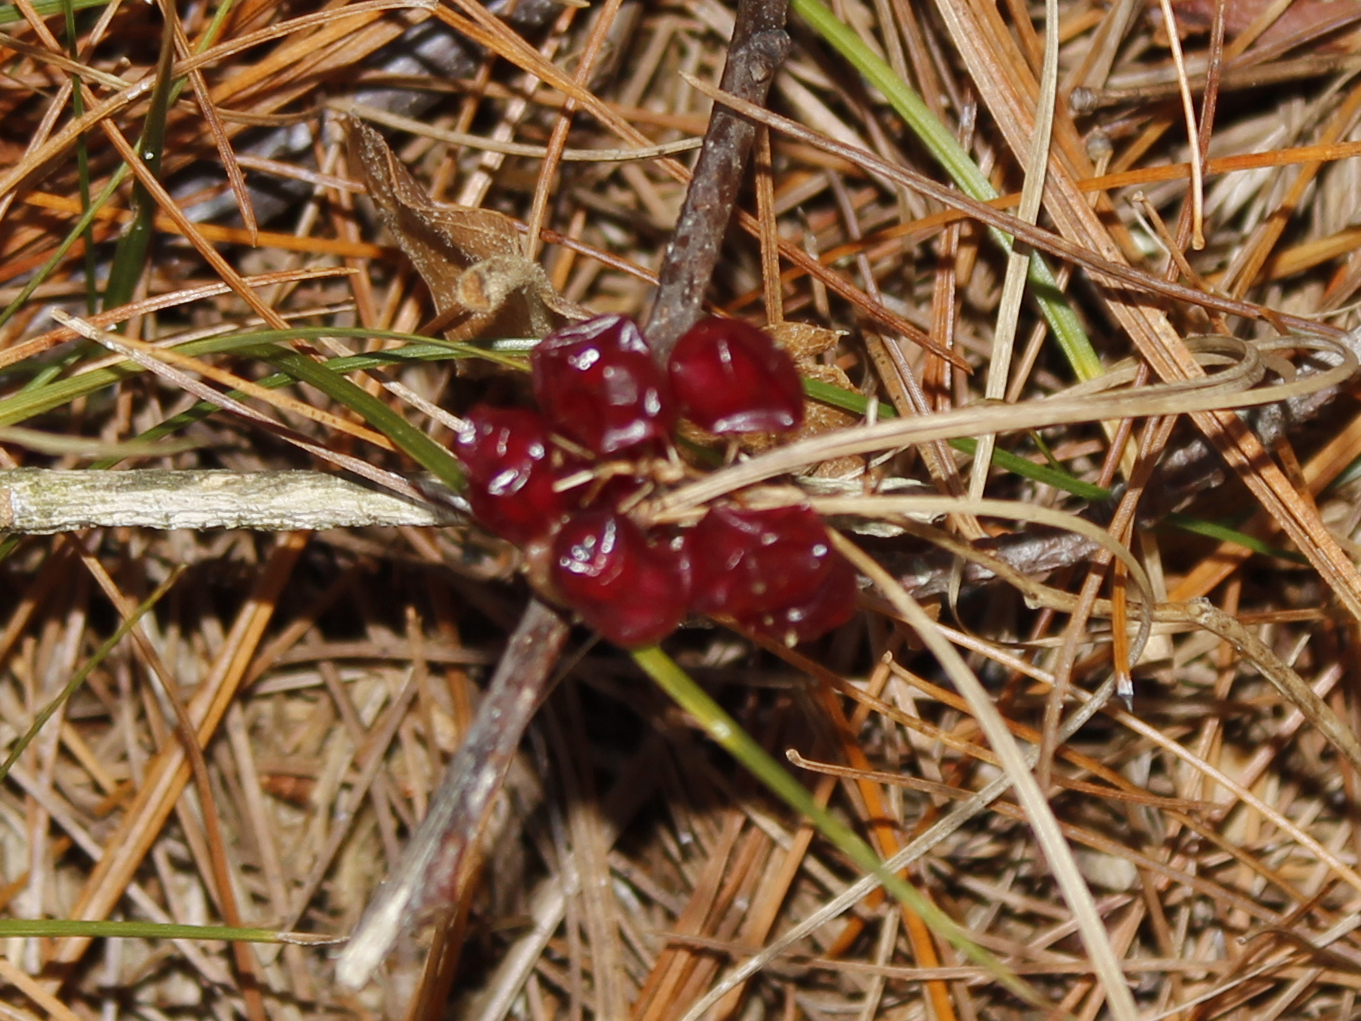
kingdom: Plantae
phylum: Tracheophyta
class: Liliopsida
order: Asparagales
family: Asparagaceae
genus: Maianthemum
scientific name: Maianthemum canadense
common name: False lily-of-the-valley
